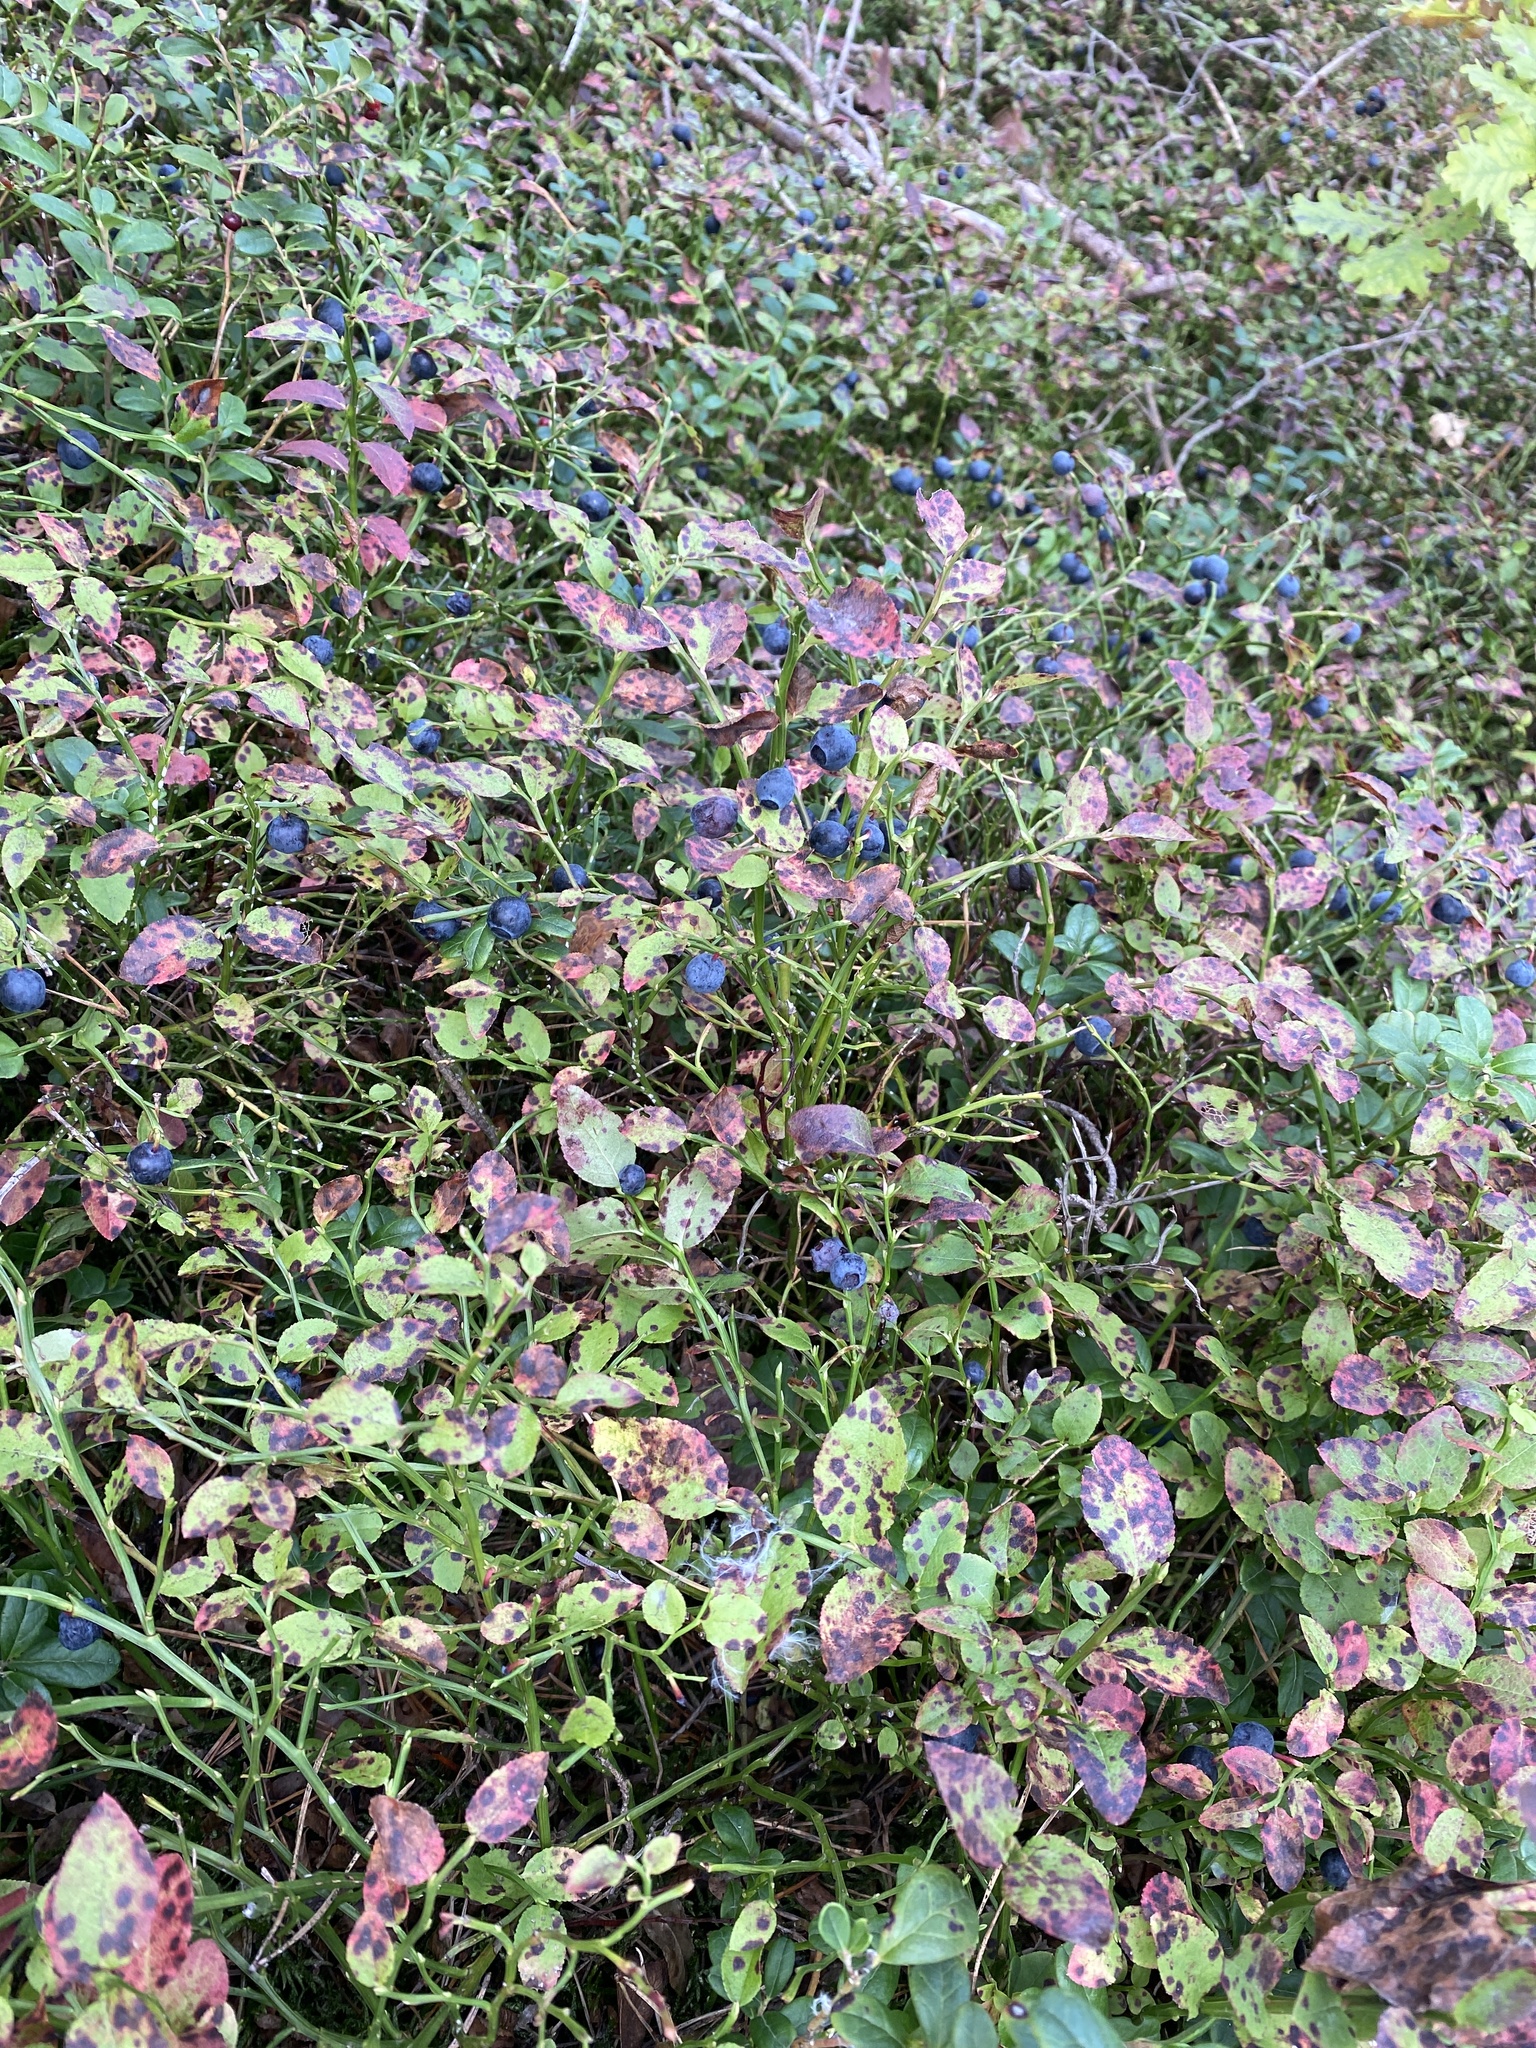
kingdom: Plantae
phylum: Tracheophyta
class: Magnoliopsida
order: Ericales
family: Ericaceae
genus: Vaccinium
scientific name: Vaccinium myrtillus
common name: Bilberry
